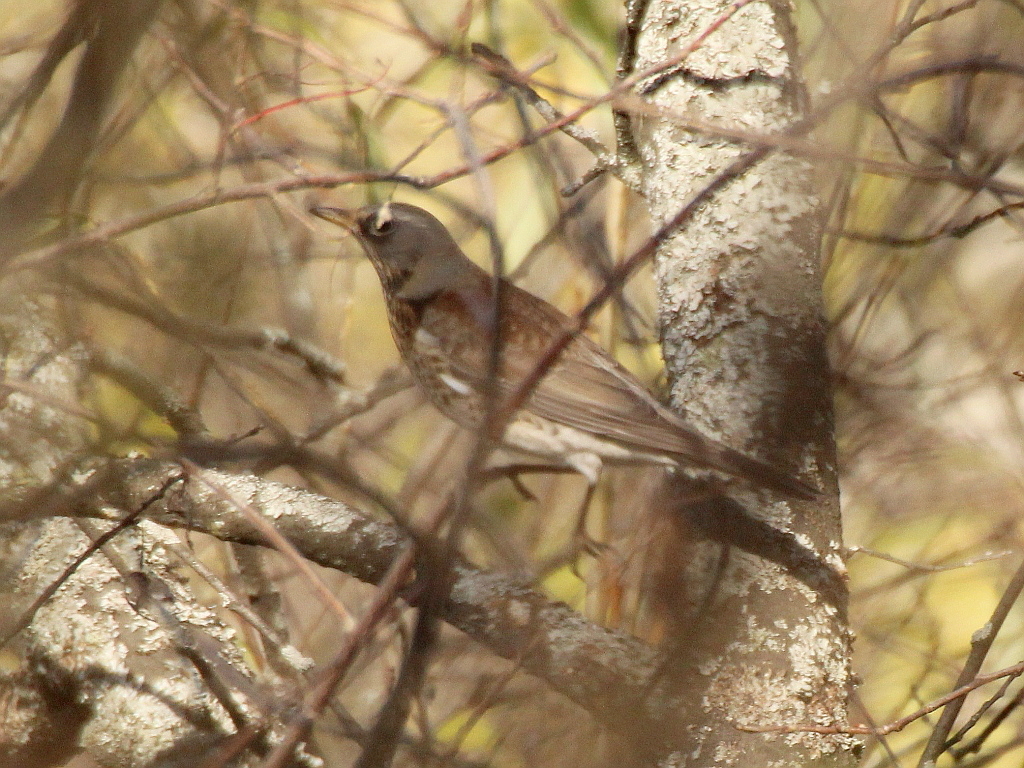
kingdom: Animalia
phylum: Chordata
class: Aves
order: Passeriformes
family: Turdidae
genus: Turdus
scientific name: Turdus pilaris
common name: Fieldfare
